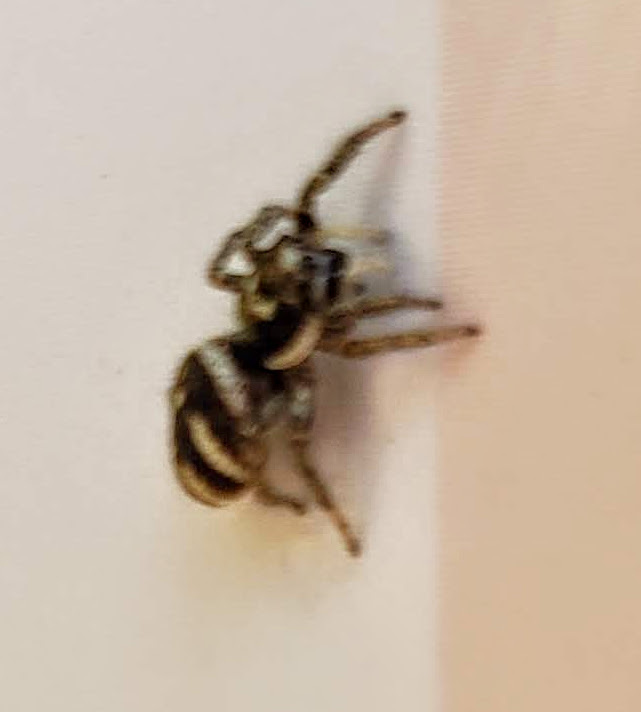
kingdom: Animalia
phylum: Arthropoda
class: Arachnida
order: Araneae
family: Salticidae
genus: Salticus
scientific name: Salticus scenicus
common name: Zebra jumper
